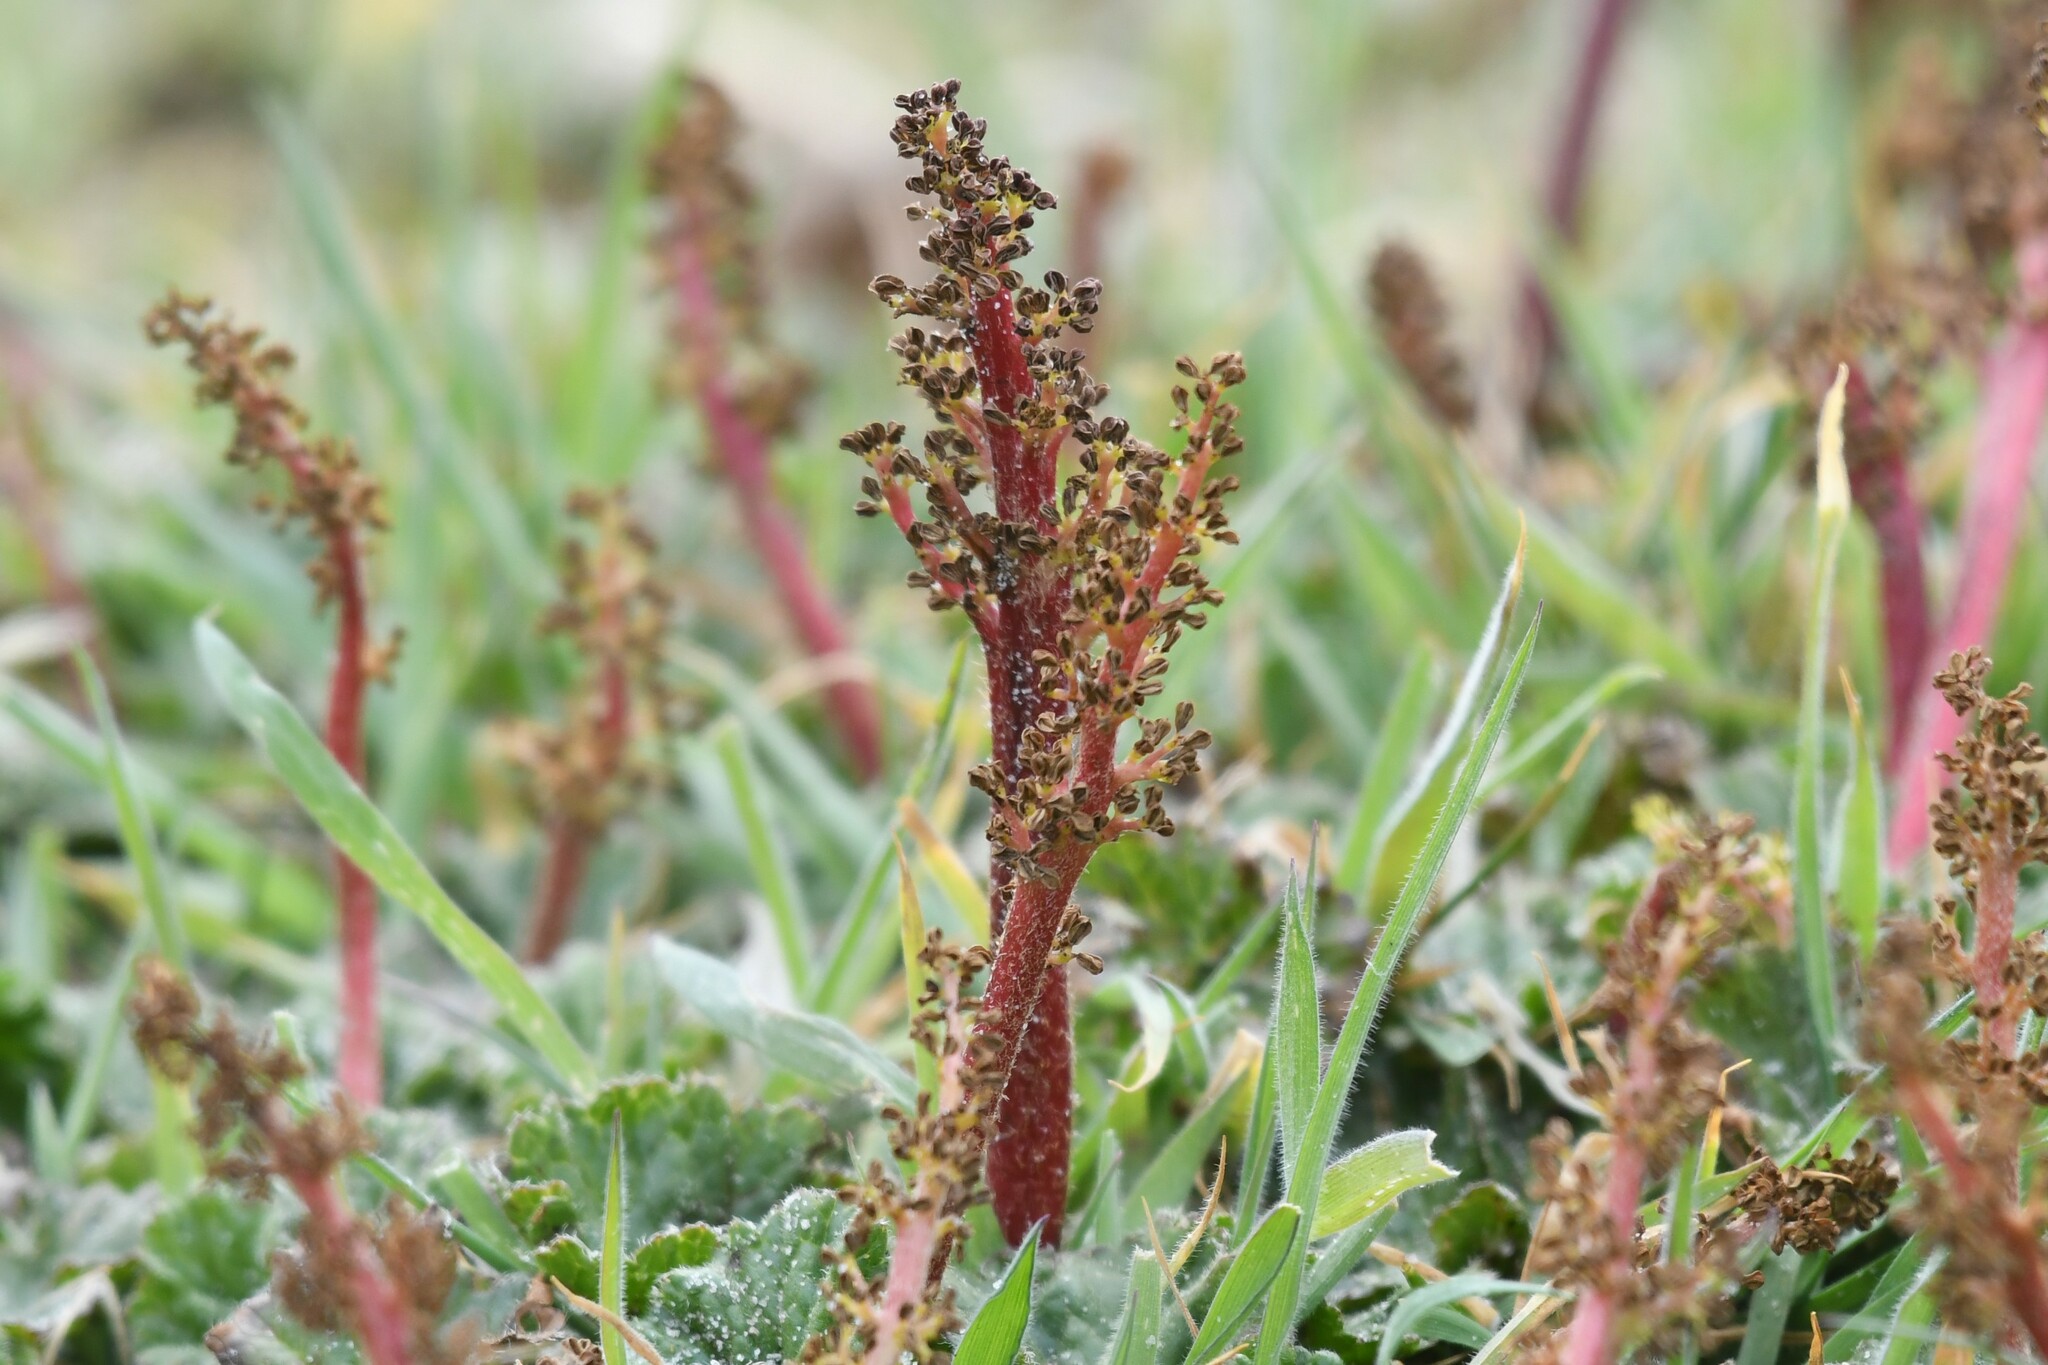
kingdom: Plantae
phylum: Tracheophyta
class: Magnoliopsida
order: Gunnerales
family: Gunneraceae
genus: Gunnera
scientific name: Gunnera magellanica
